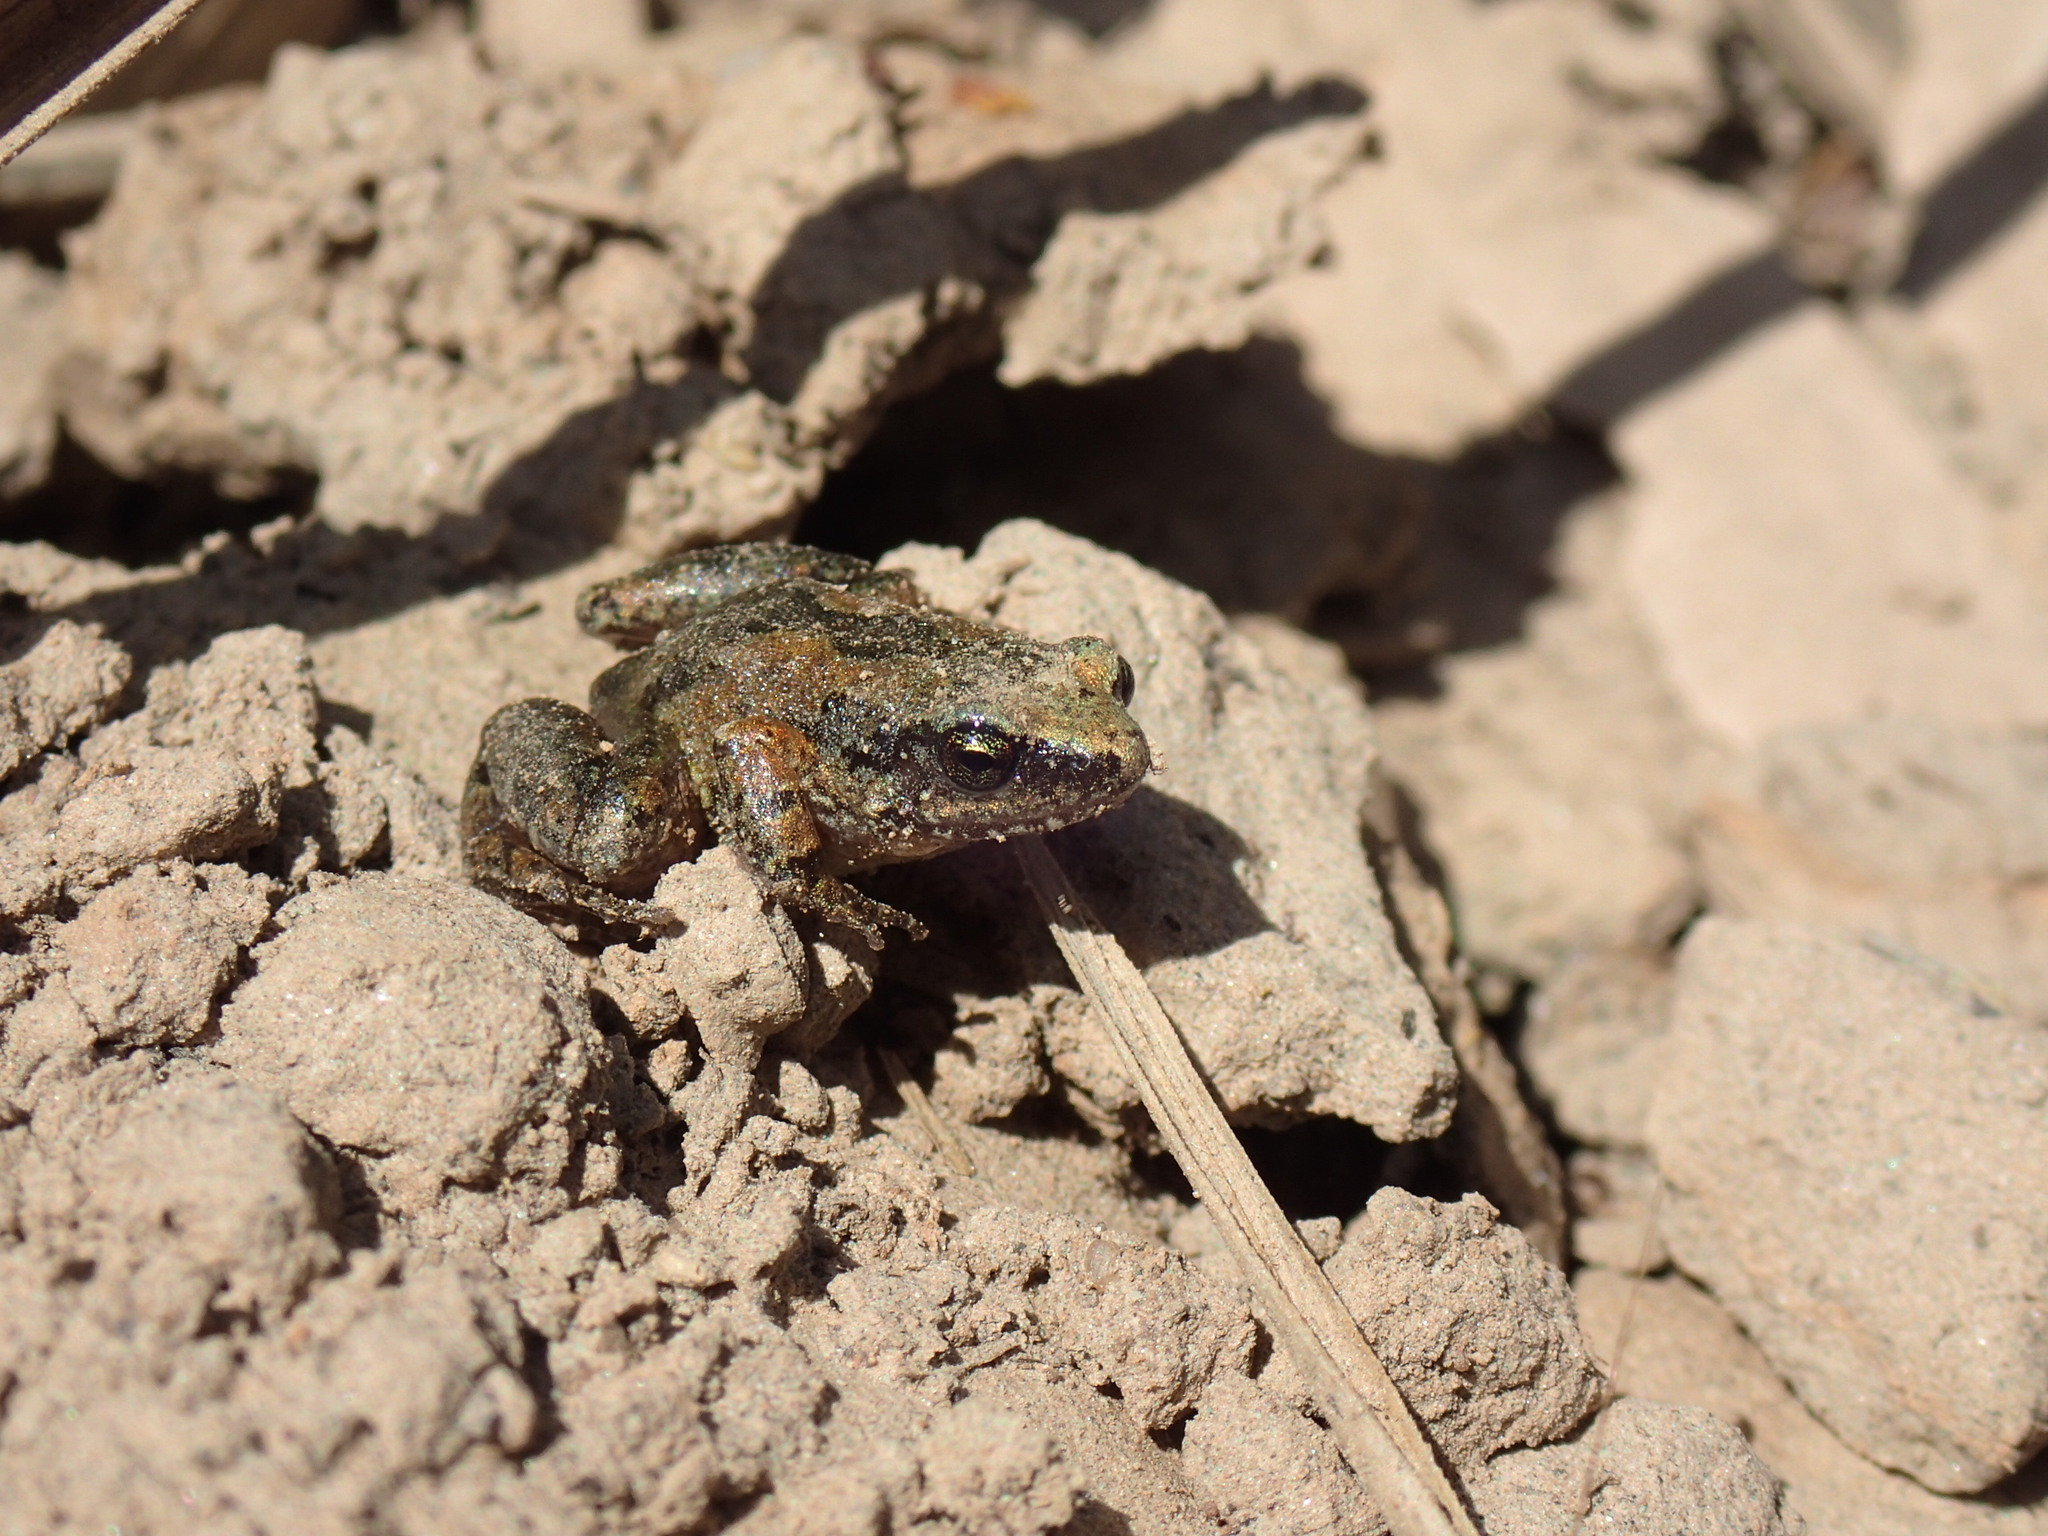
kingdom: Animalia
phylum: Chordata
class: Amphibia
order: Anura
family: Arthroleptidae
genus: Arthroleptis
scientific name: Arthroleptis stenodactylus
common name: Dune squeaker
